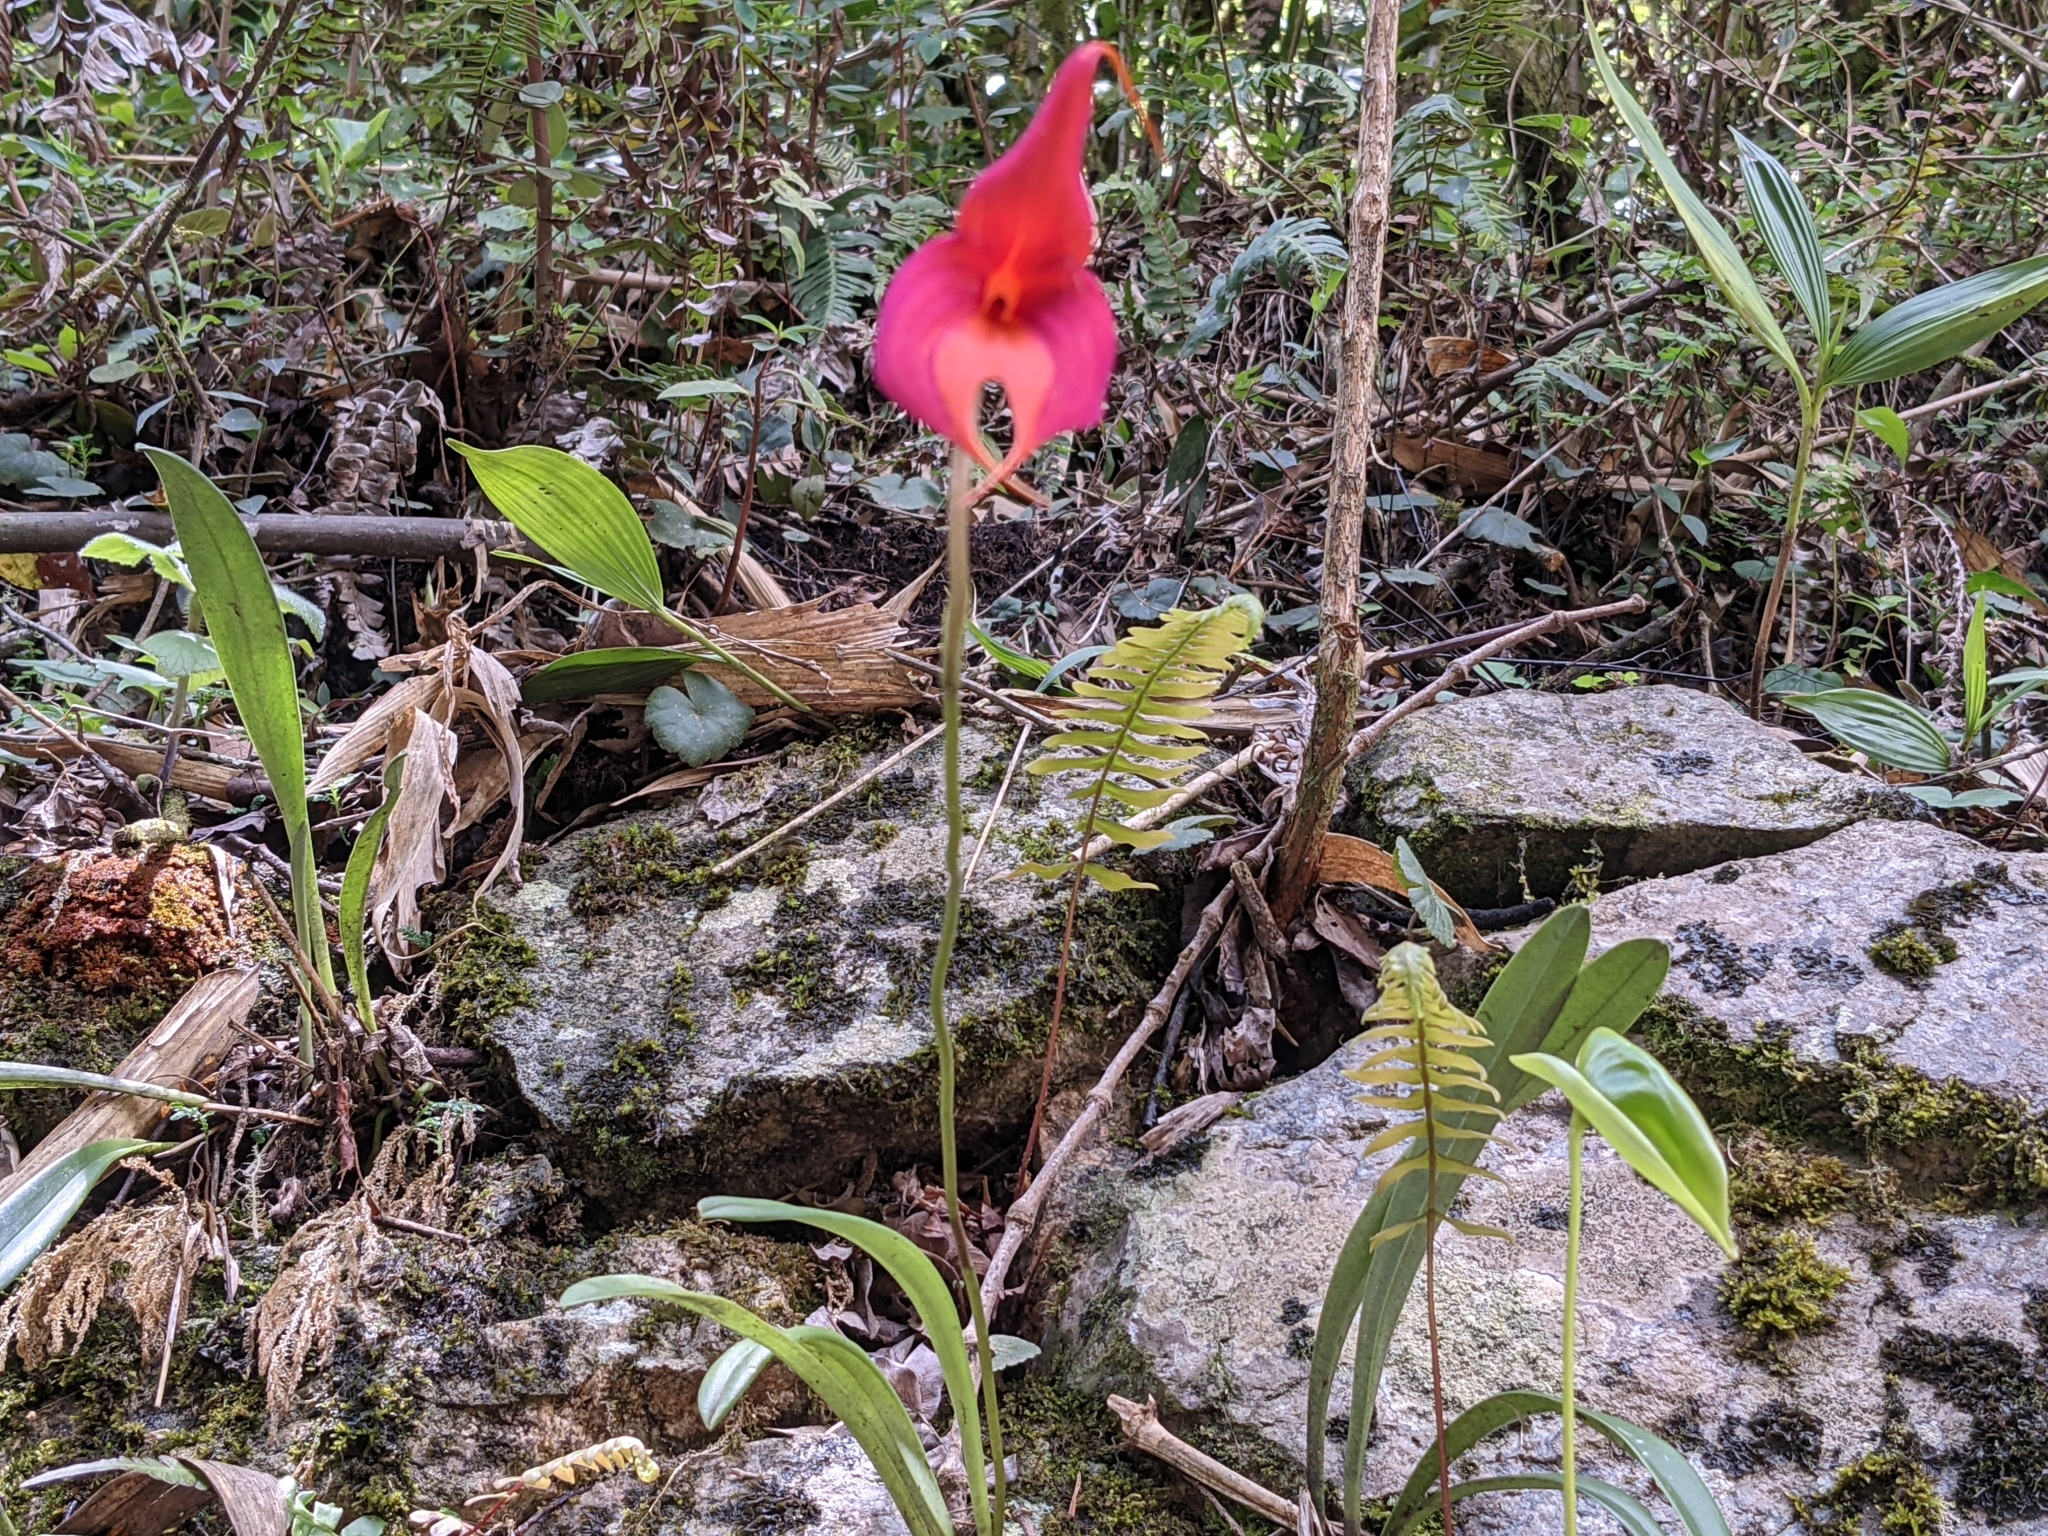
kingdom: Plantae
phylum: Tracheophyta
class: Liliopsida
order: Asparagales
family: Orchidaceae
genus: Masdevallia
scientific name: Masdevallia veitchiana
